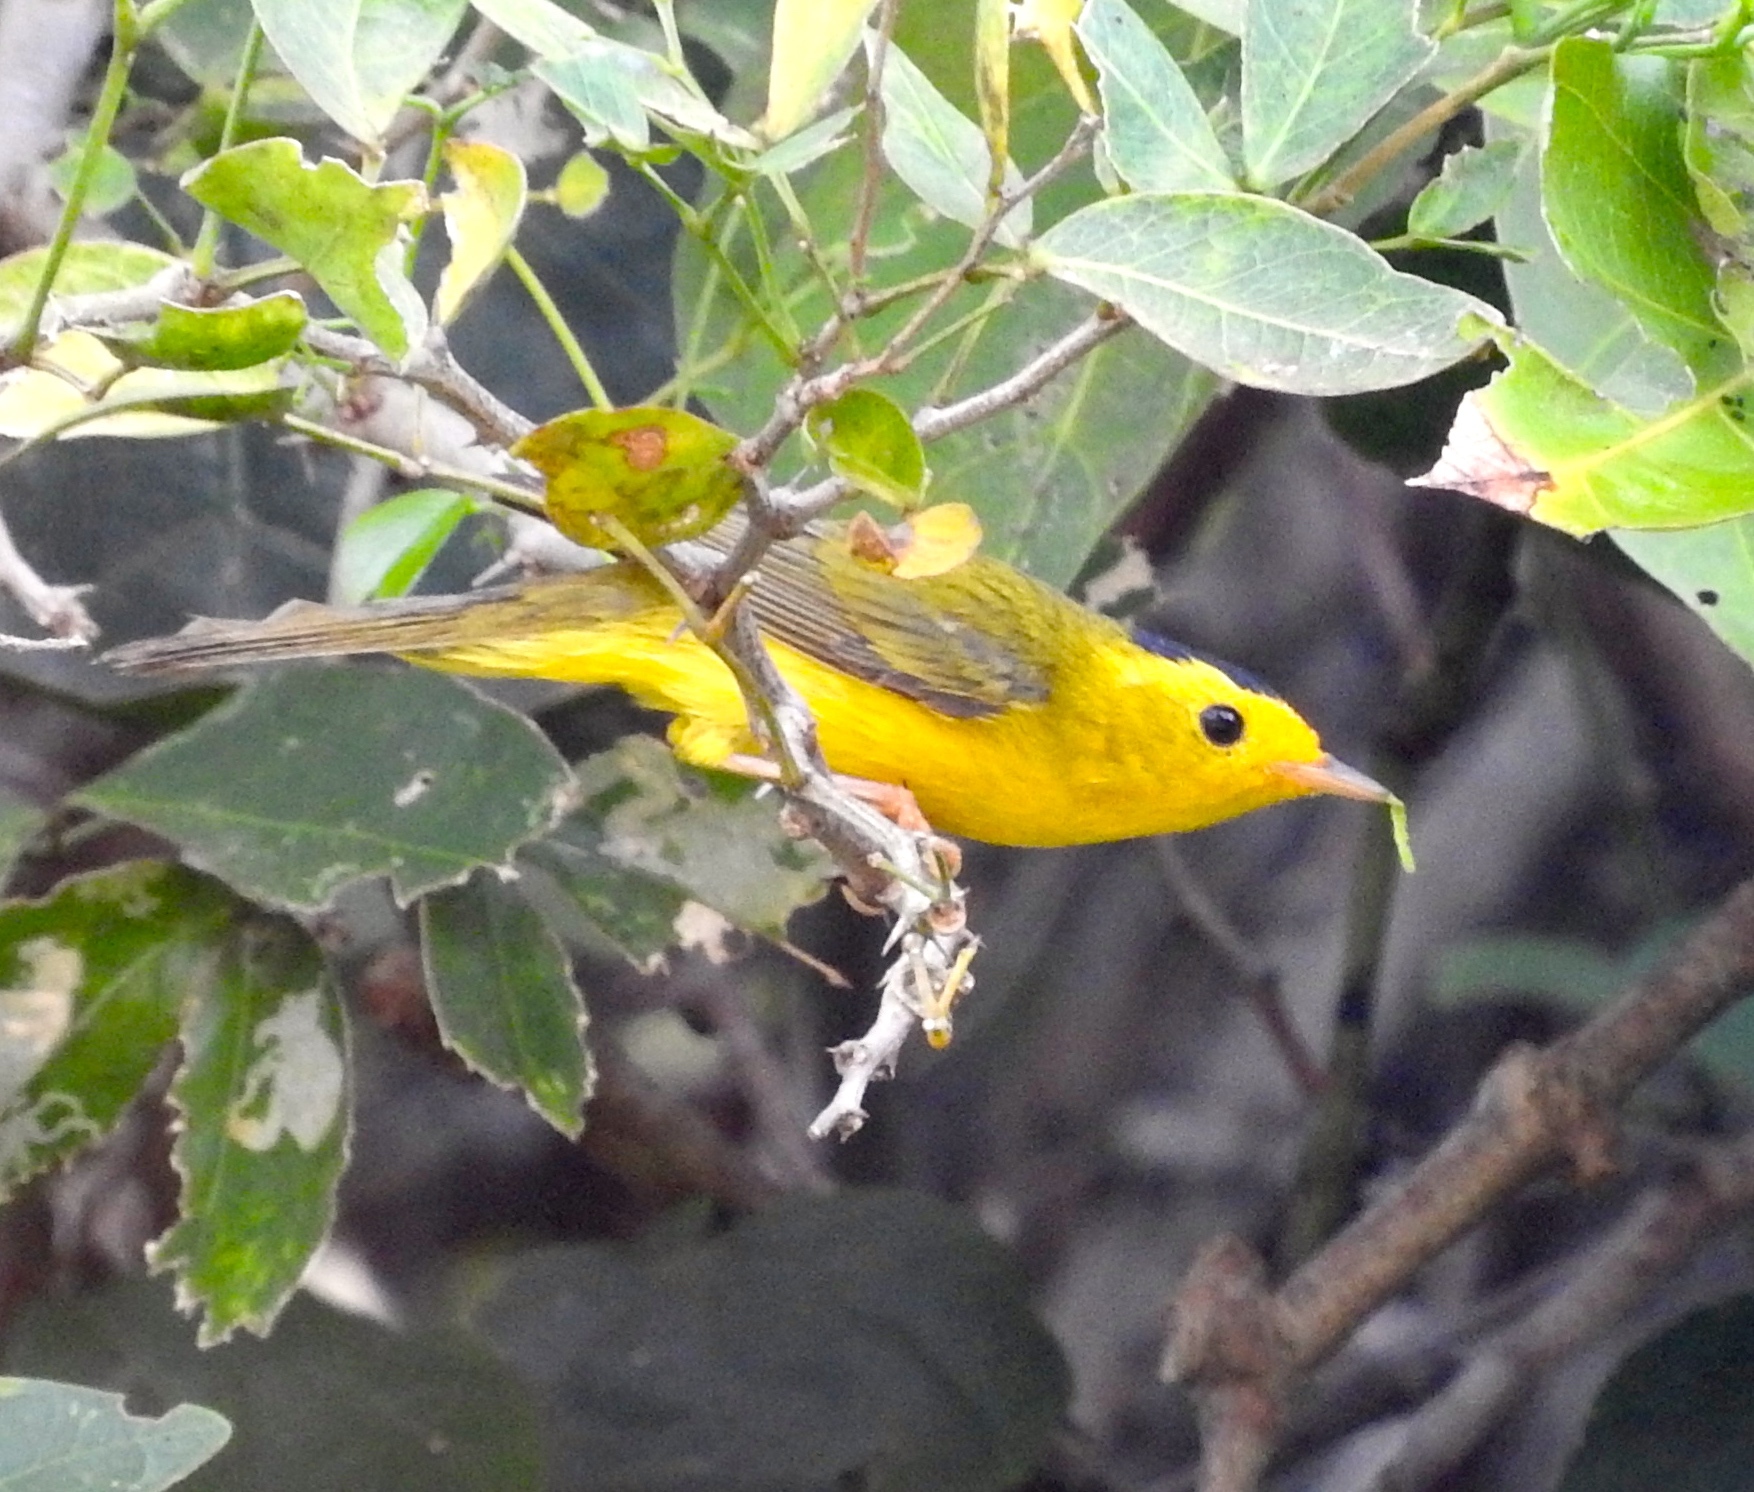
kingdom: Animalia
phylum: Chordata
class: Aves
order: Passeriformes
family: Parulidae
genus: Cardellina
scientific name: Cardellina pusilla
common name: Wilson's warbler
